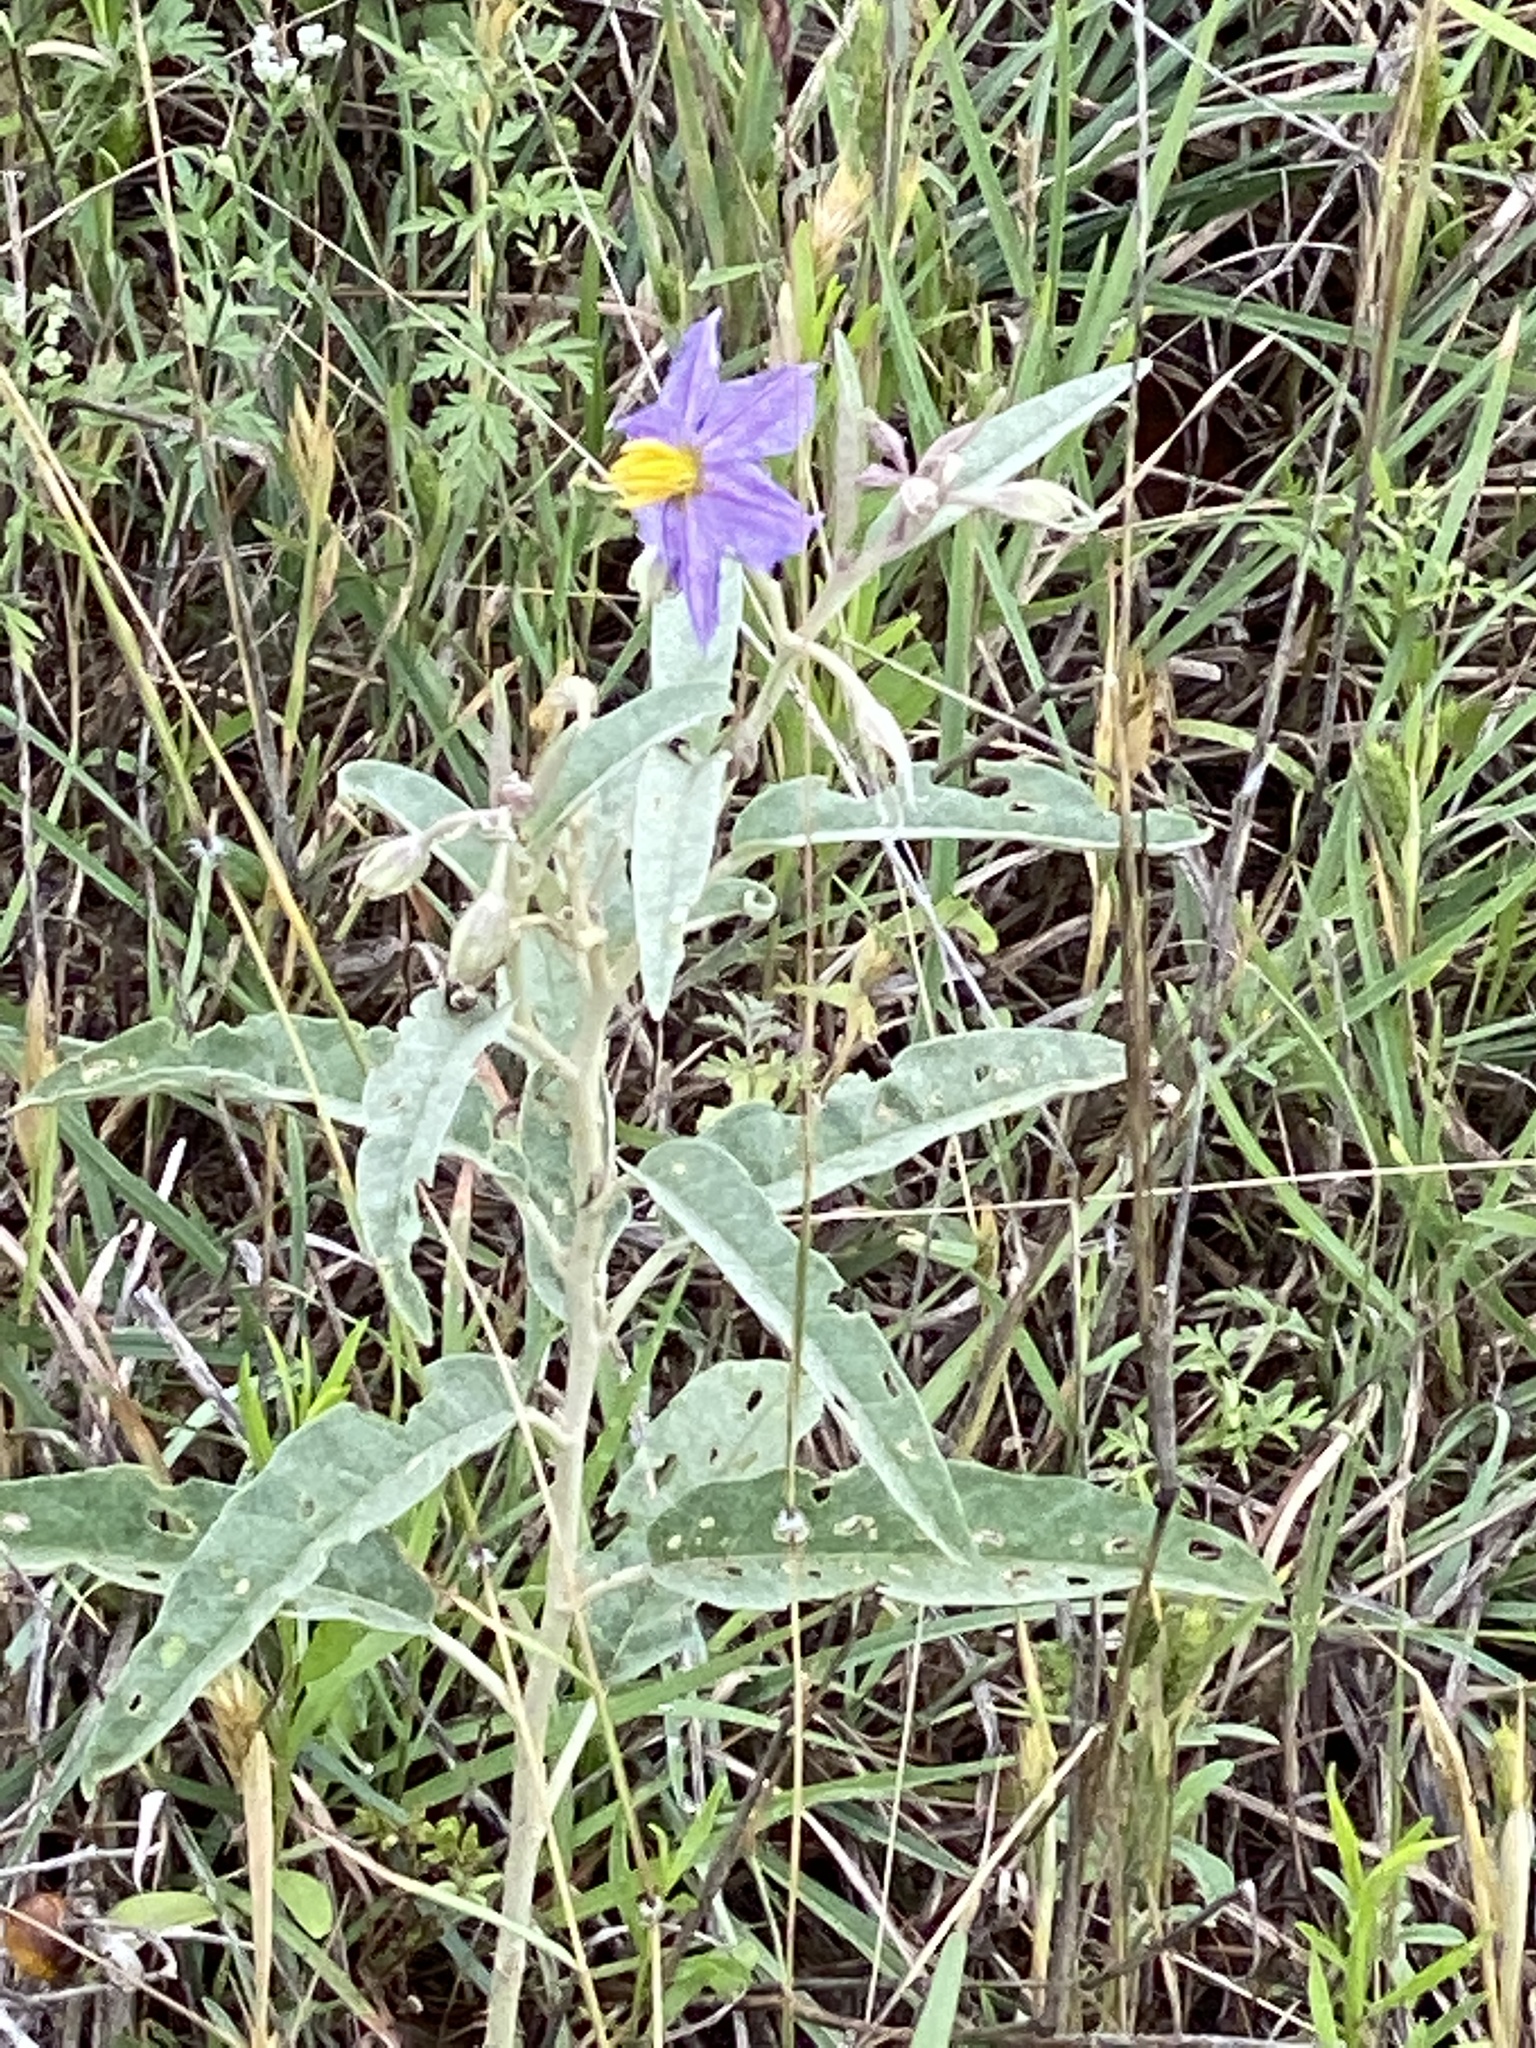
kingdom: Plantae
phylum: Tracheophyta
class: Magnoliopsida
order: Solanales
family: Solanaceae
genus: Solanum
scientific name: Solanum elaeagnifolium
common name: Silverleaf nightshade
